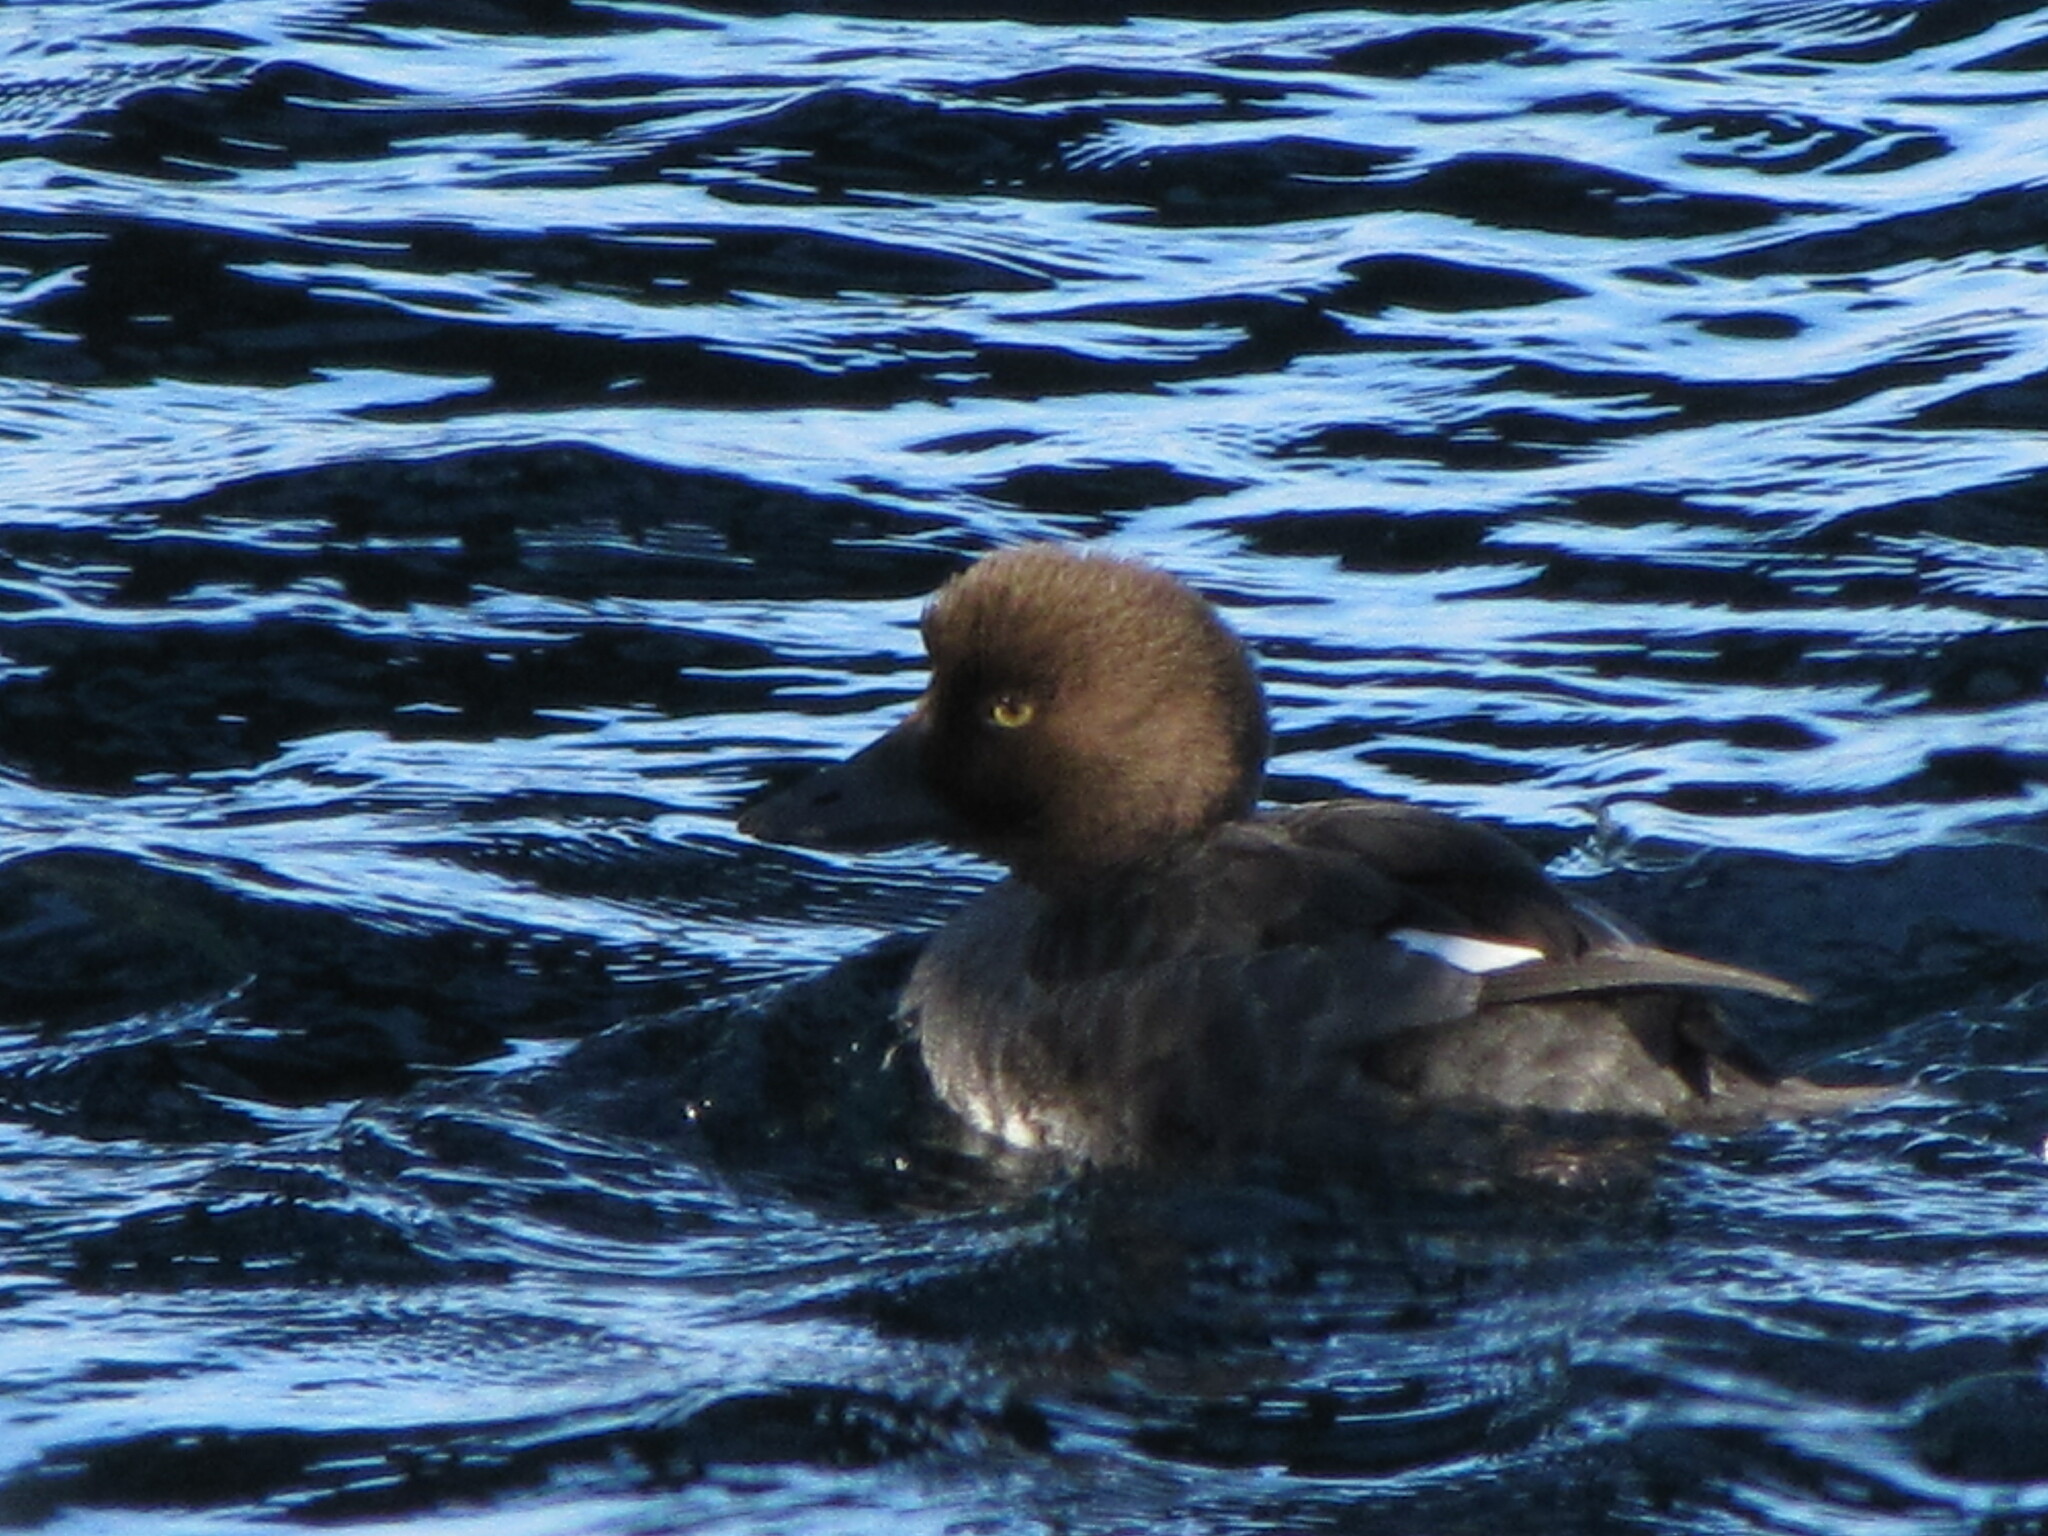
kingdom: Animalia
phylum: Chordata
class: Aves
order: Anseriformes
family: Anatidae
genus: Bucephala
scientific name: Bucephala clangula
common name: Common goldeneye
